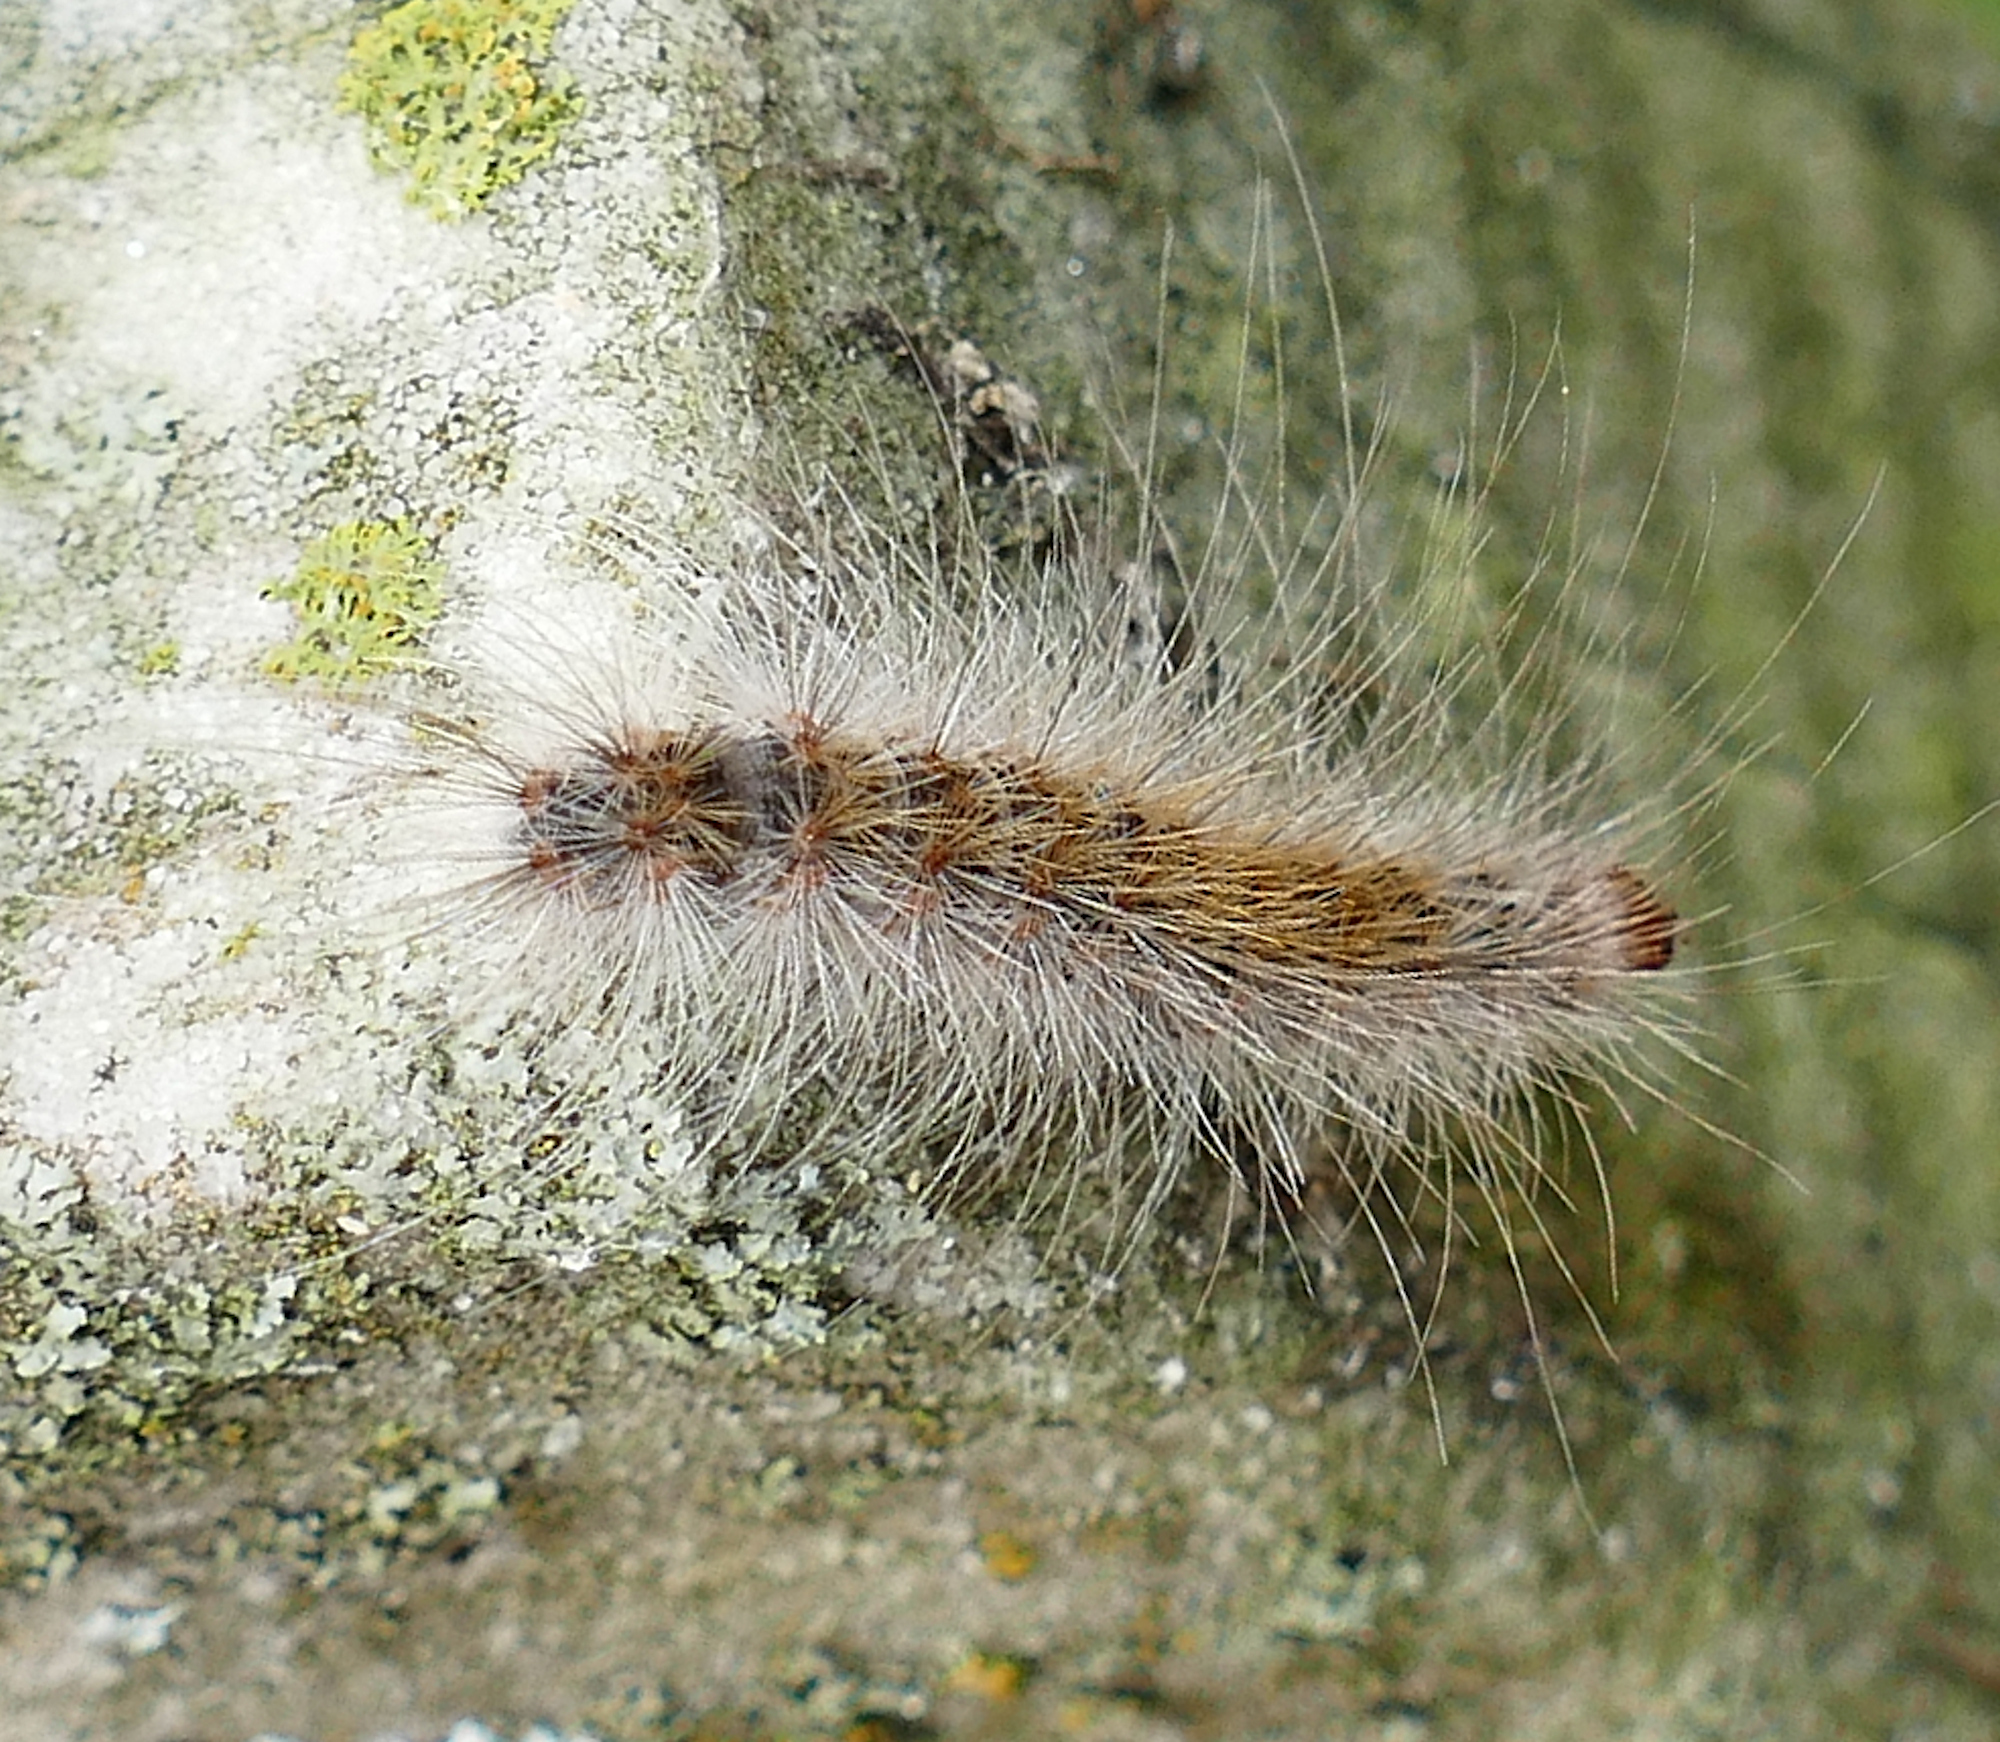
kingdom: Animalia
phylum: Arthropoda
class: Insecta
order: Lepidoptera
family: Erebidae
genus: Hyphantria
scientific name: Hyphantria cunea
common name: American white moth
